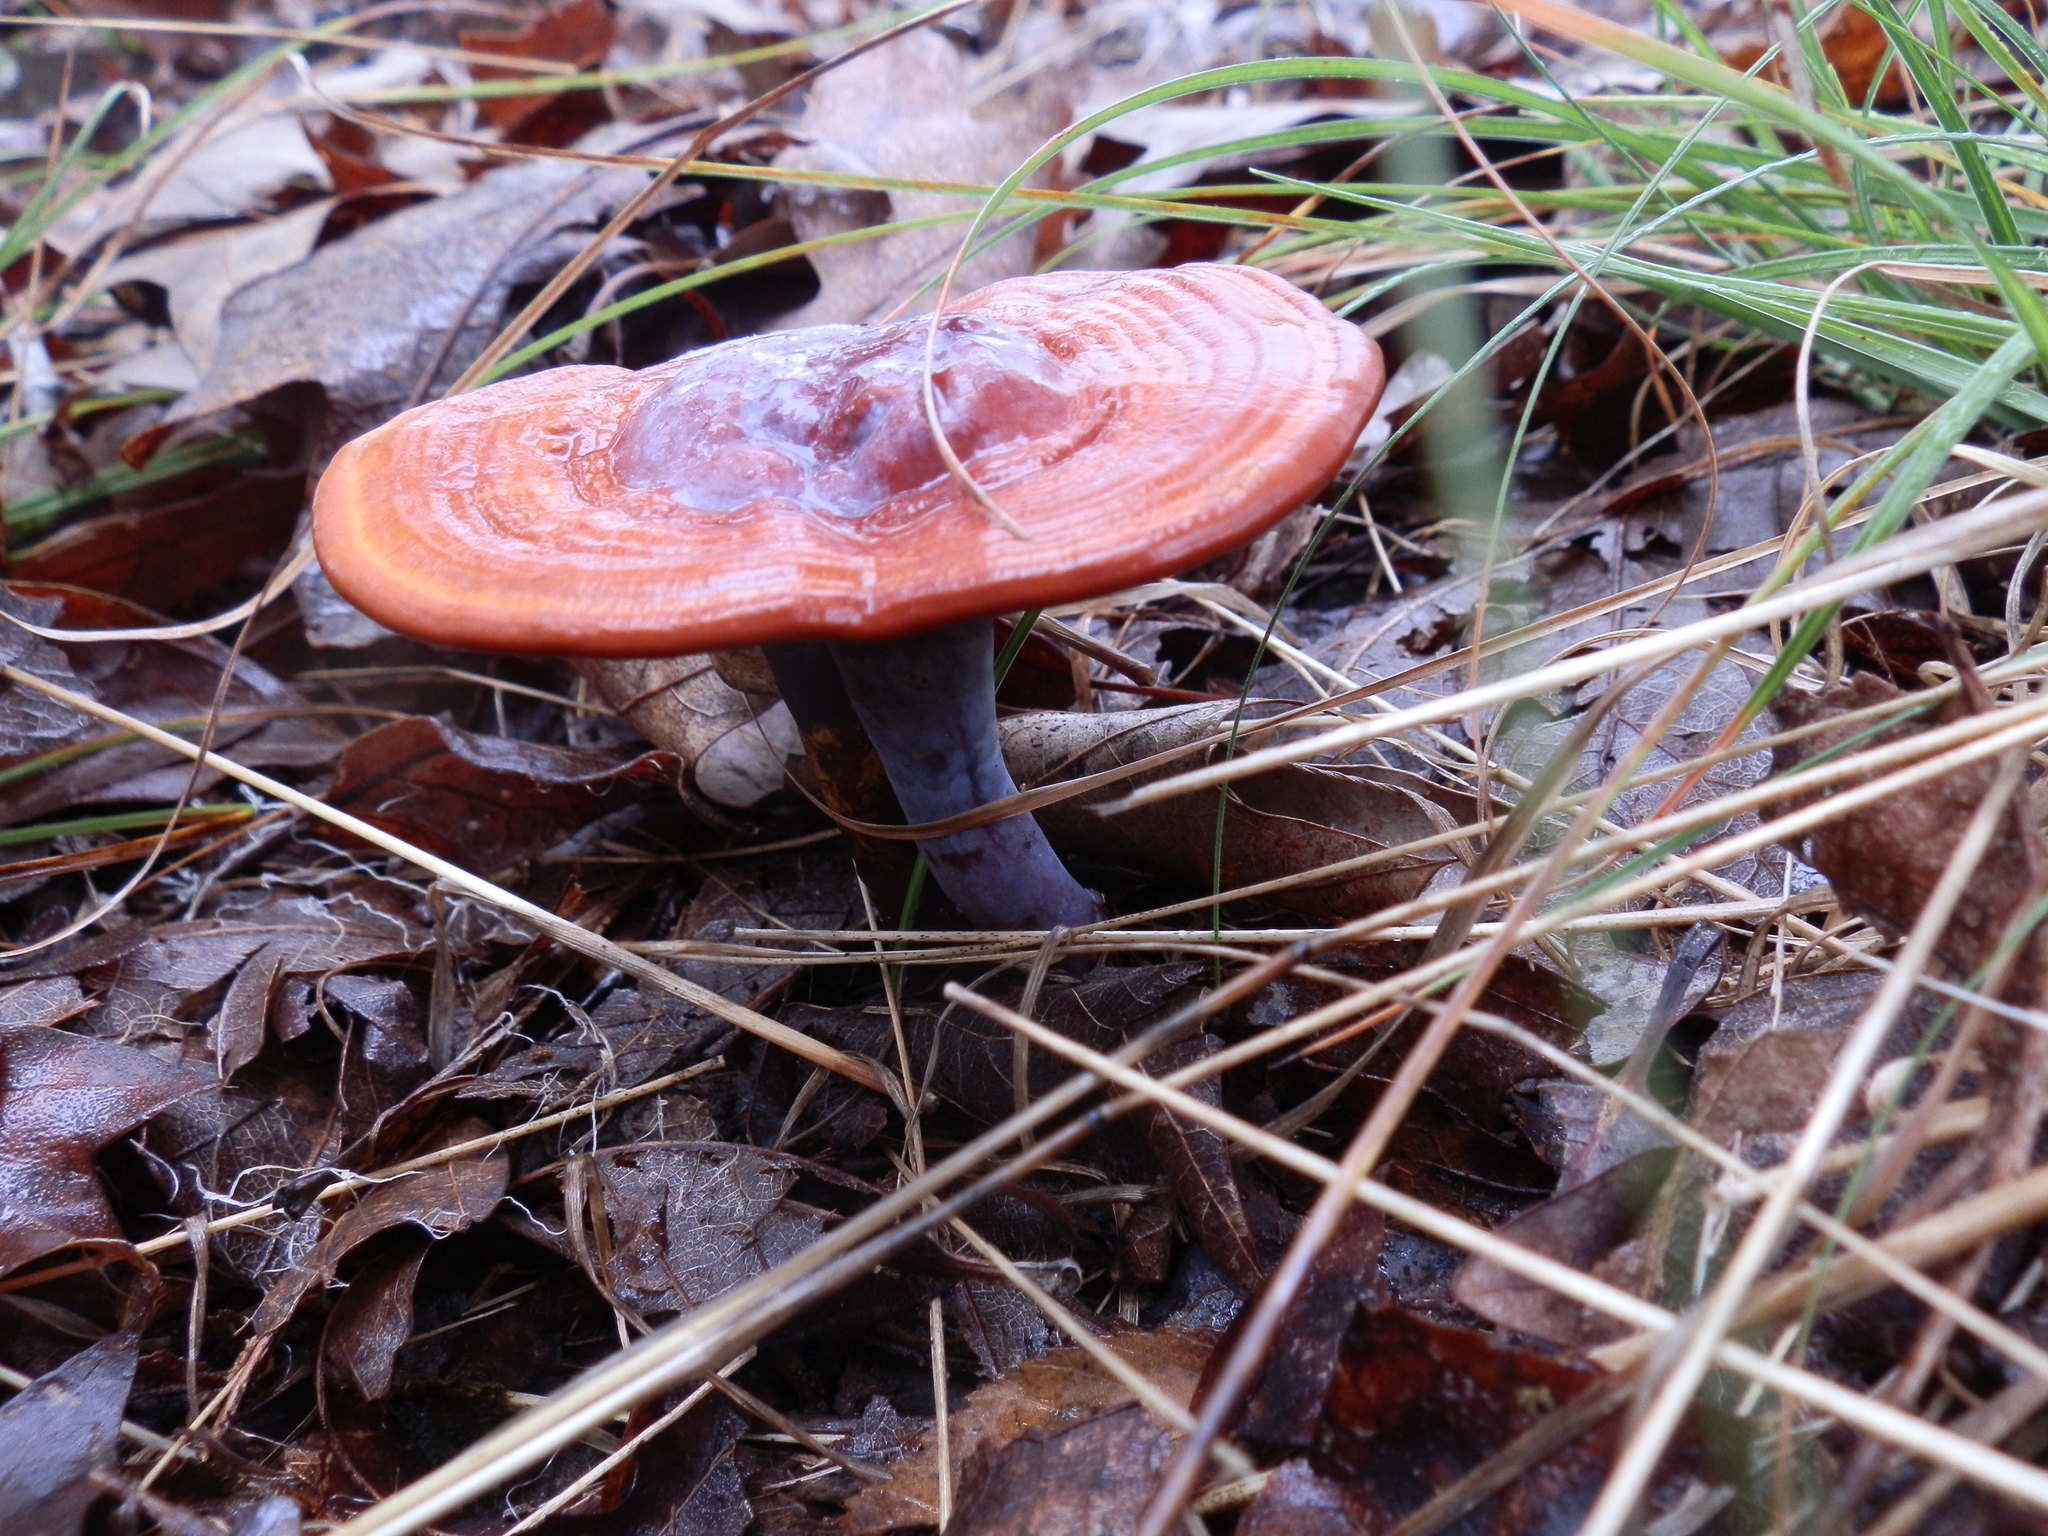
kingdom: Fungi
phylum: Basidiomycota
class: Agaricomycetes
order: Polyporales
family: Polyporaceae
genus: Ganoderma
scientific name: Ganoderma curtisii
